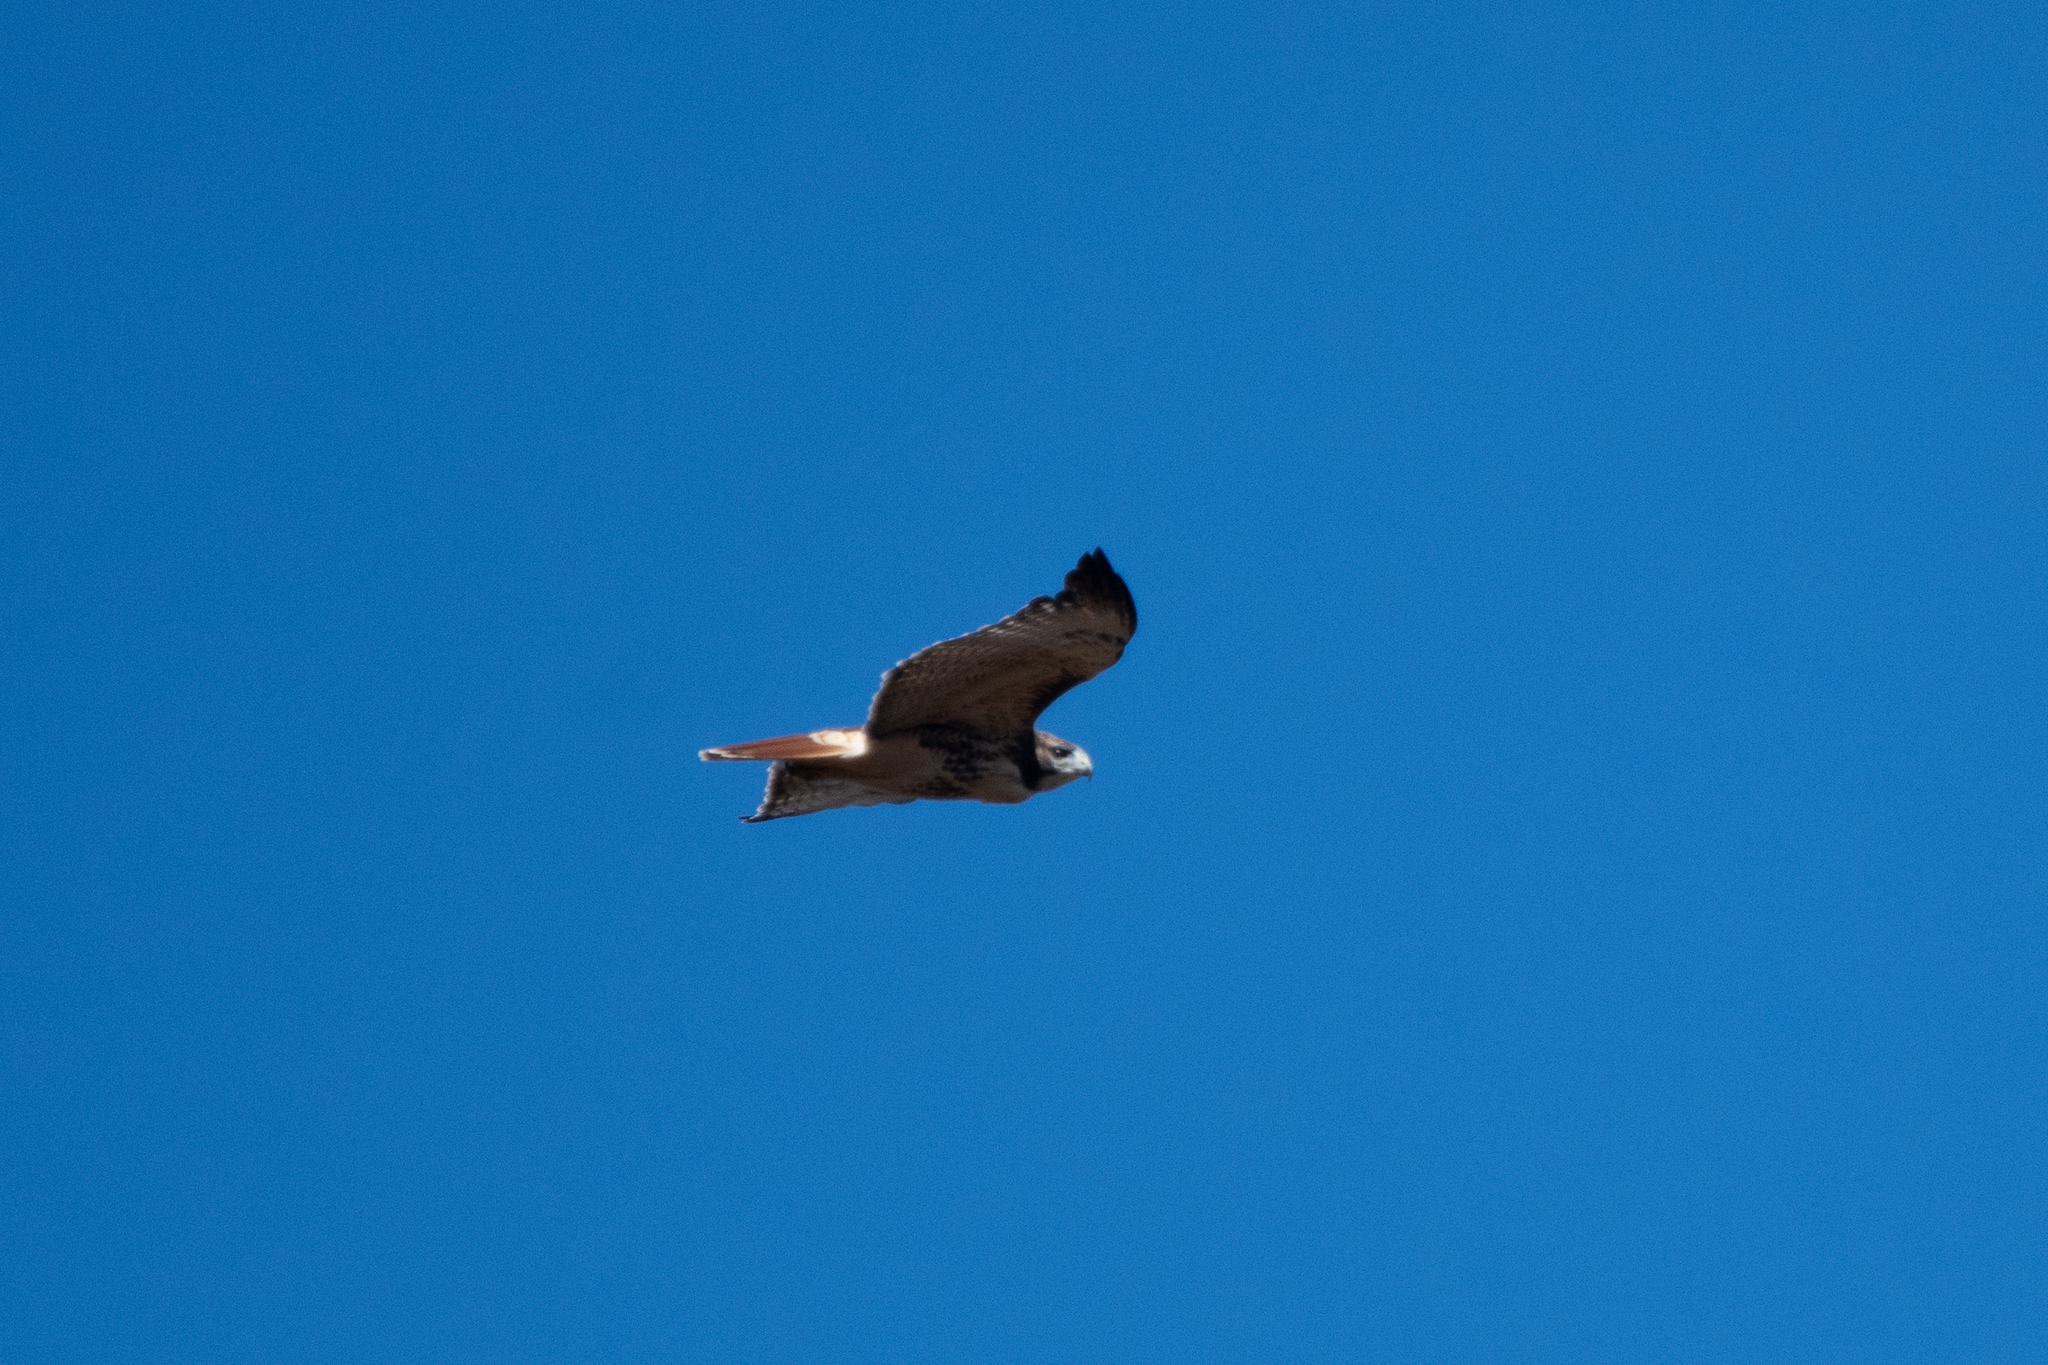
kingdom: Animalia
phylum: Chordata
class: Aves
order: Accipitriformes
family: Accipitridae
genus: Buteo
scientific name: Buteo jamaicensis
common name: Red-tailed hawk
